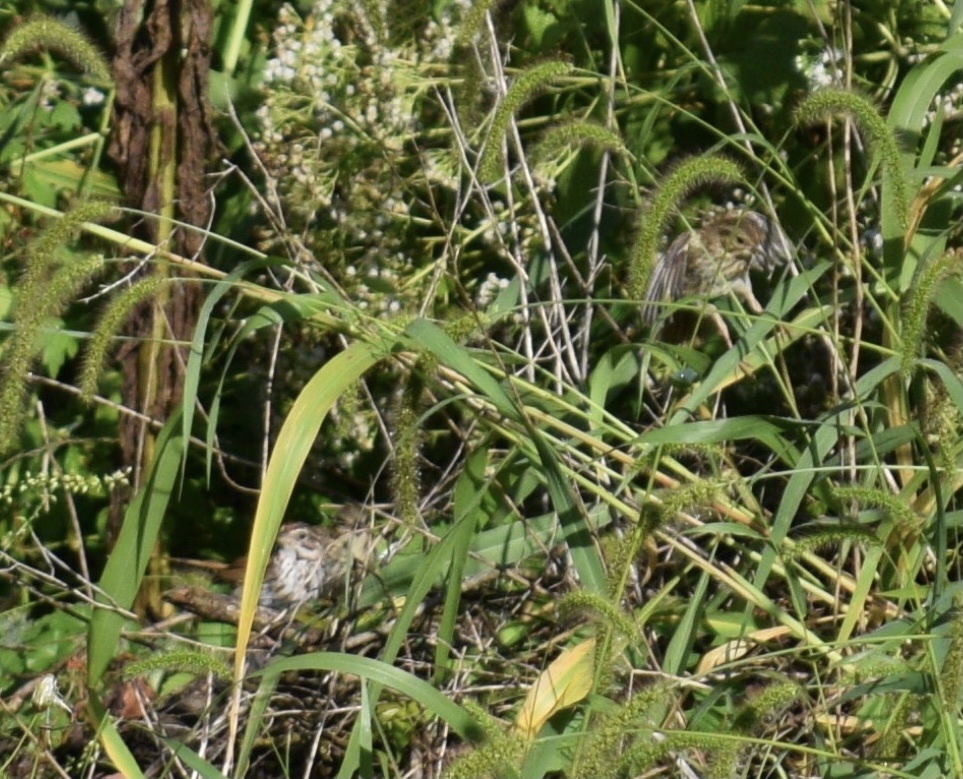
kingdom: Animalia
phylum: Chordata
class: Aves
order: Passeriformes
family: Passerellidae
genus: Melospiza
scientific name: Melospiza melodia
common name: Song sparrow
